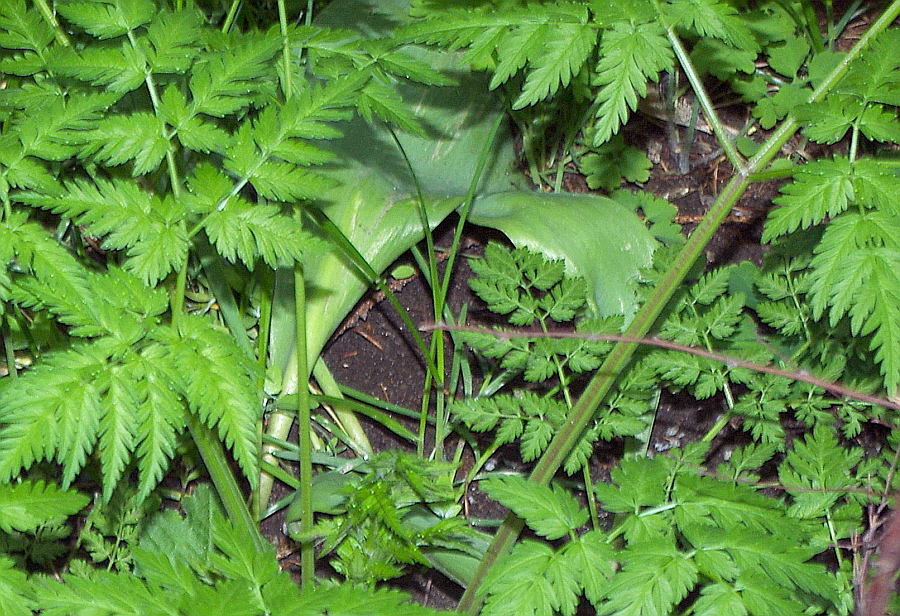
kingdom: Plantae
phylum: Tracheophyta
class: Liliopsida
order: Liliales
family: Liliaceae
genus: Tulipa
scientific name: Tulipa gesneriana
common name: Garden tulip
